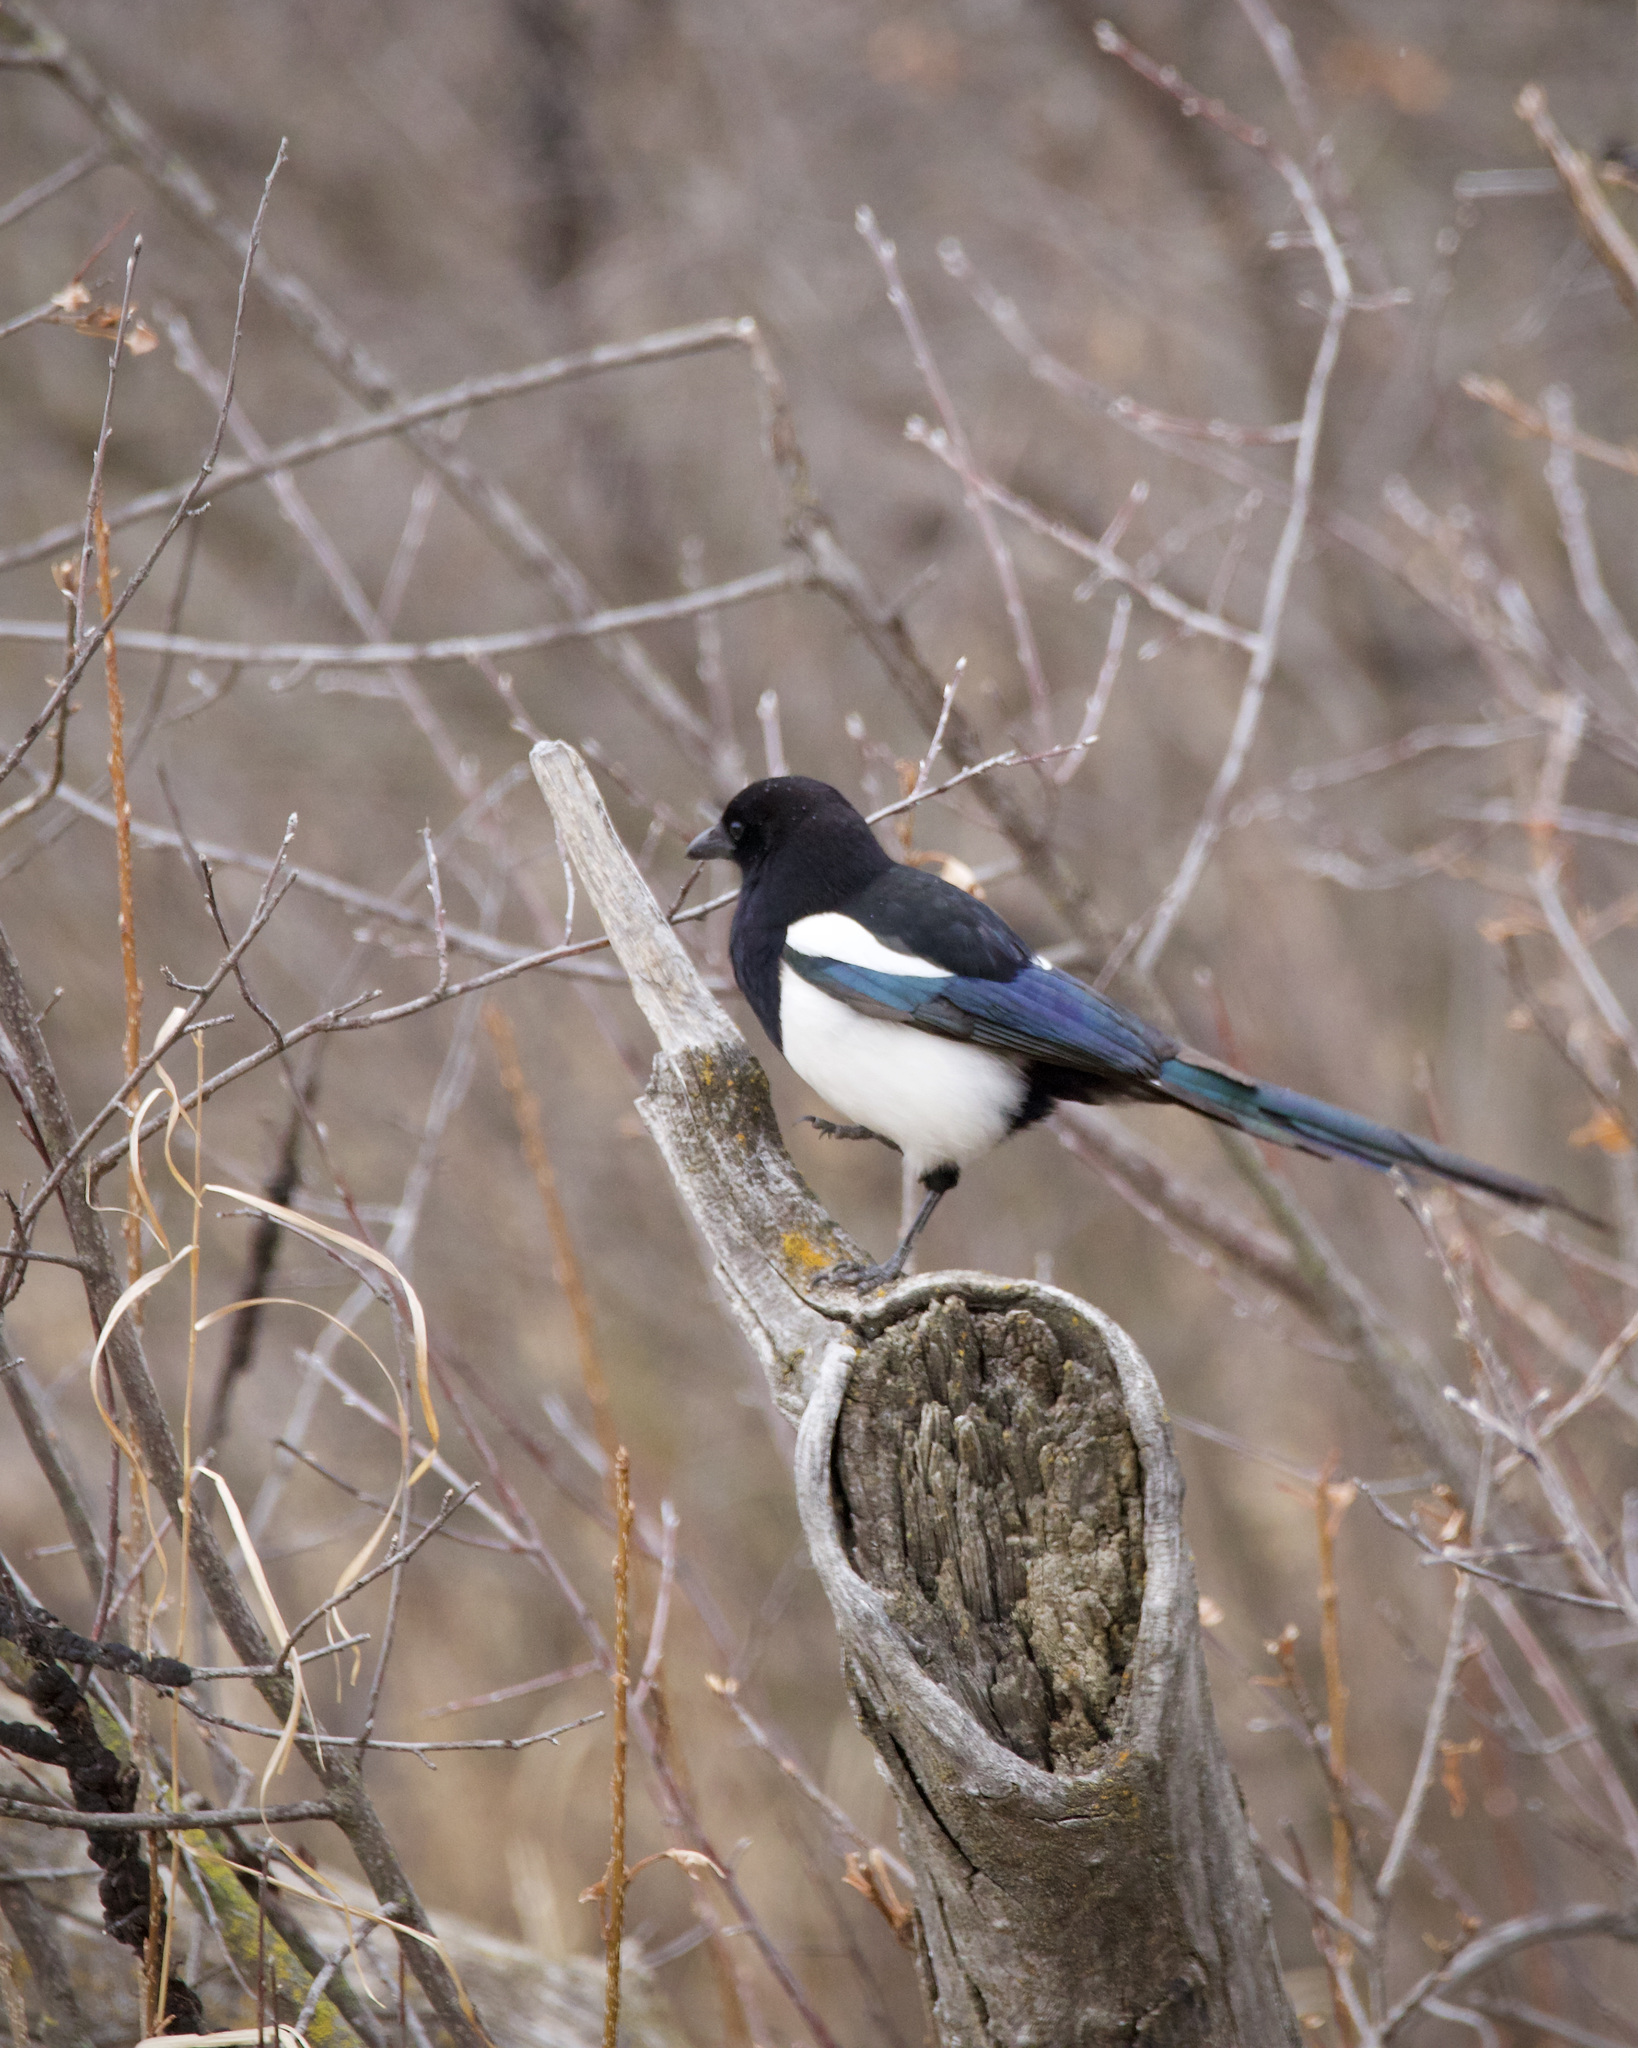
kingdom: Animalia
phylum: Chordata
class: Aves
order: Passeriformes
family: Corvidae
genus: Pica
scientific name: Pica hudsonia
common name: Black-billed magpie
